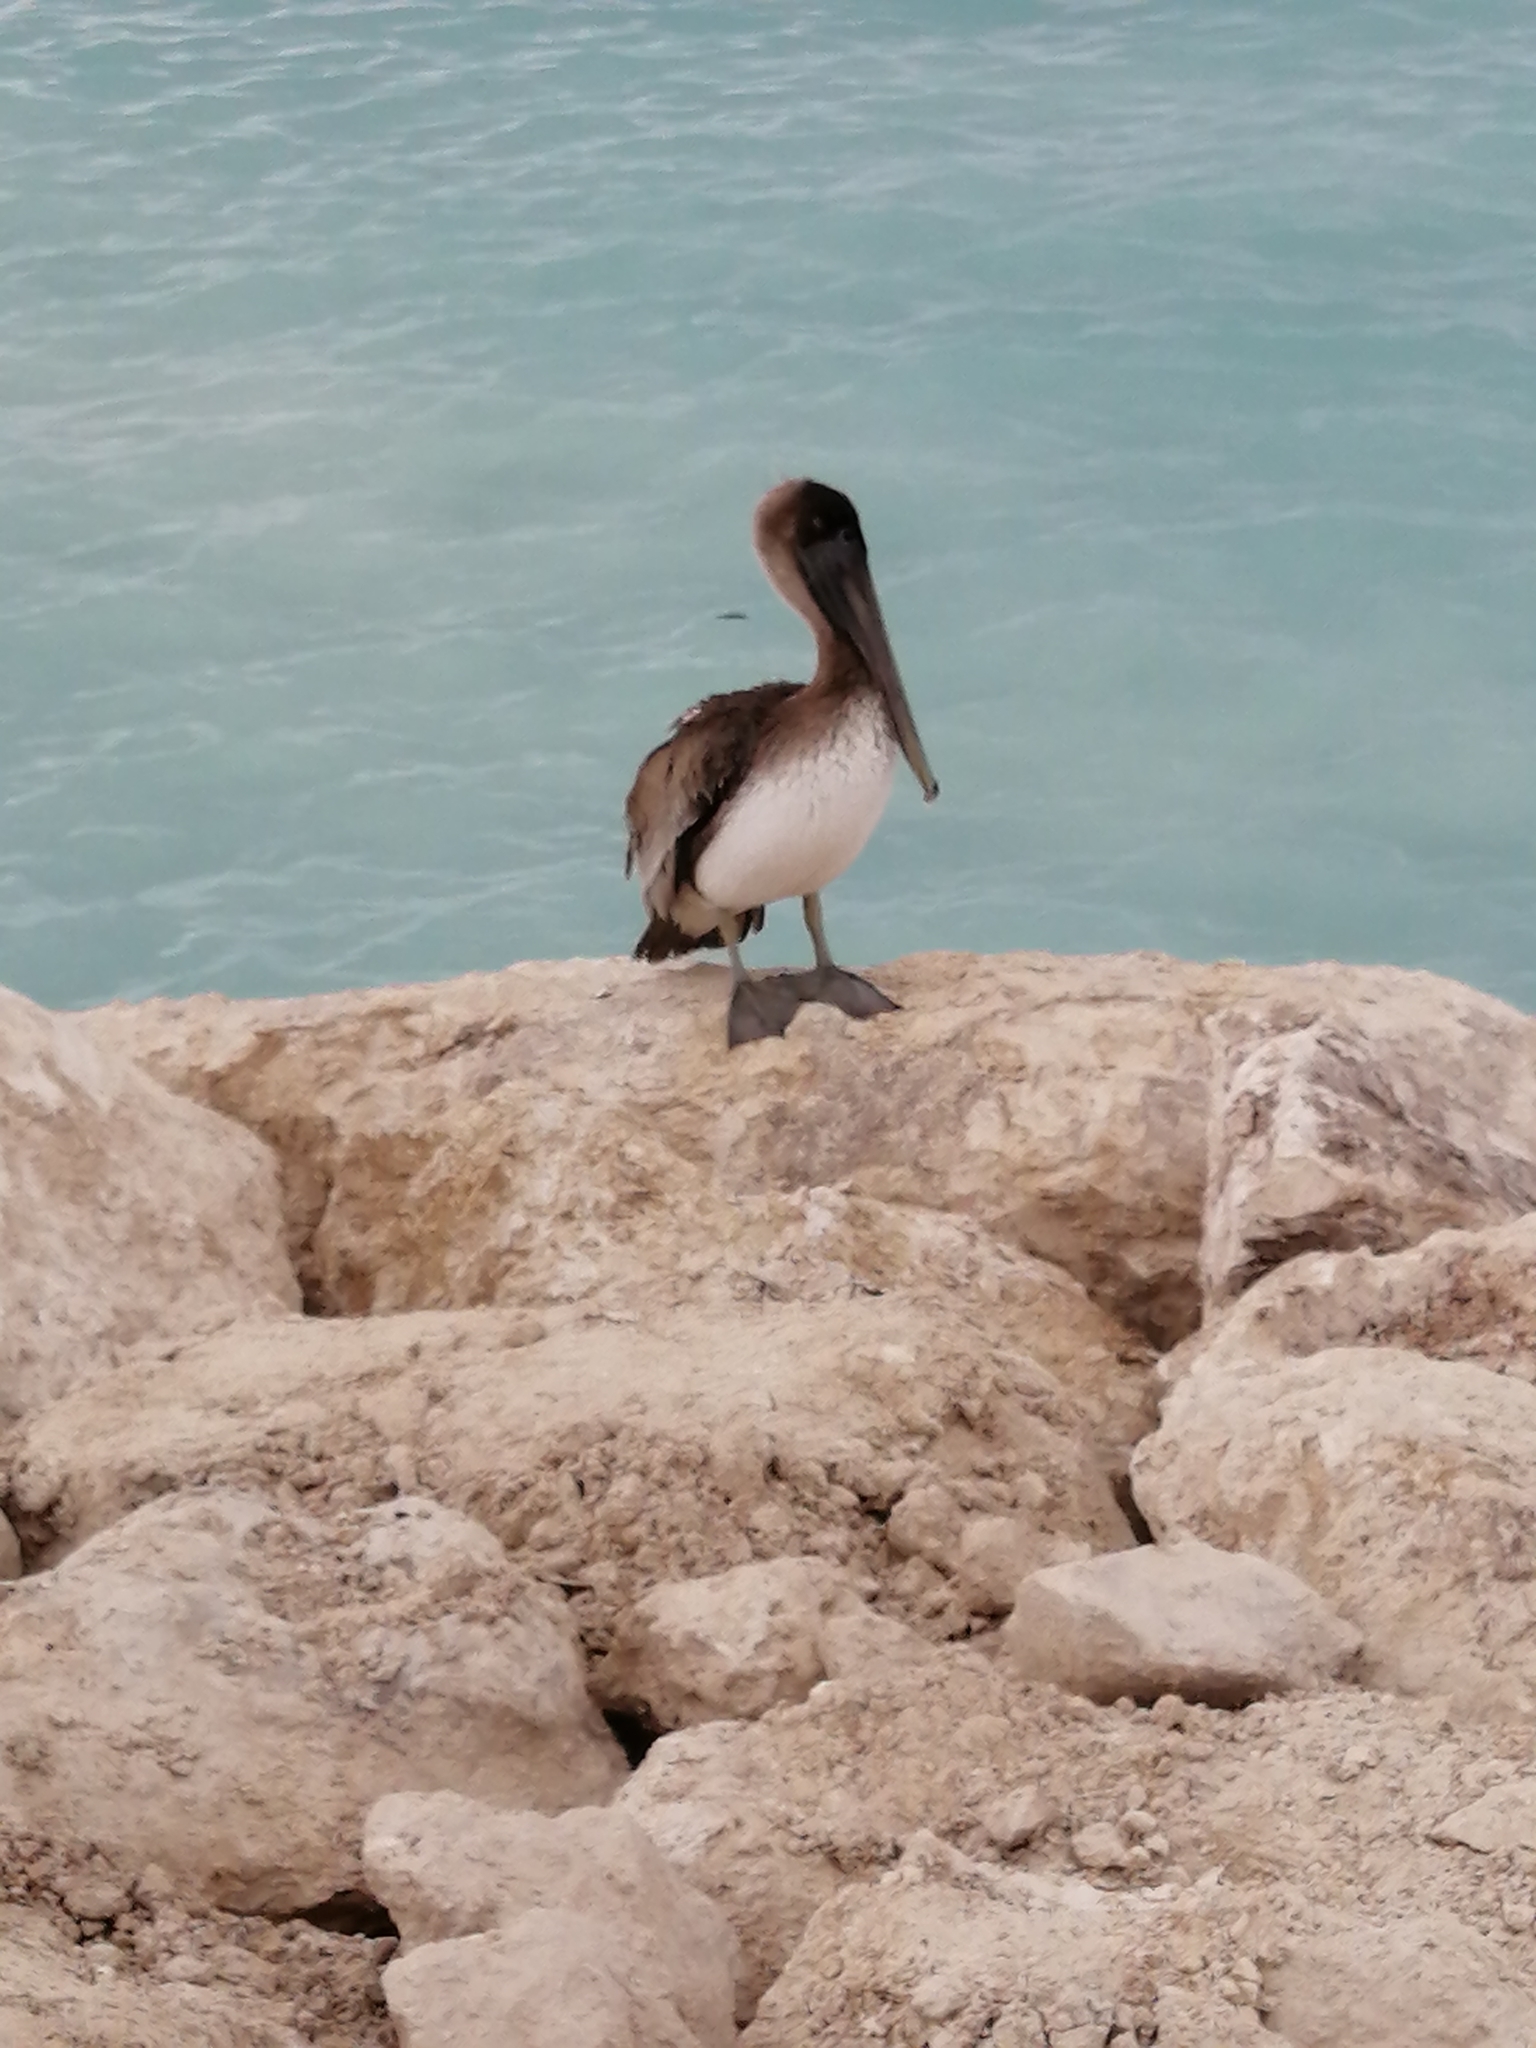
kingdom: Animalia
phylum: Chordata
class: Aves
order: Pelecaniformes
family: Pelecanidae
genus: Pelecanus
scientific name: Pelecanus occidentalis
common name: Brown pelican
